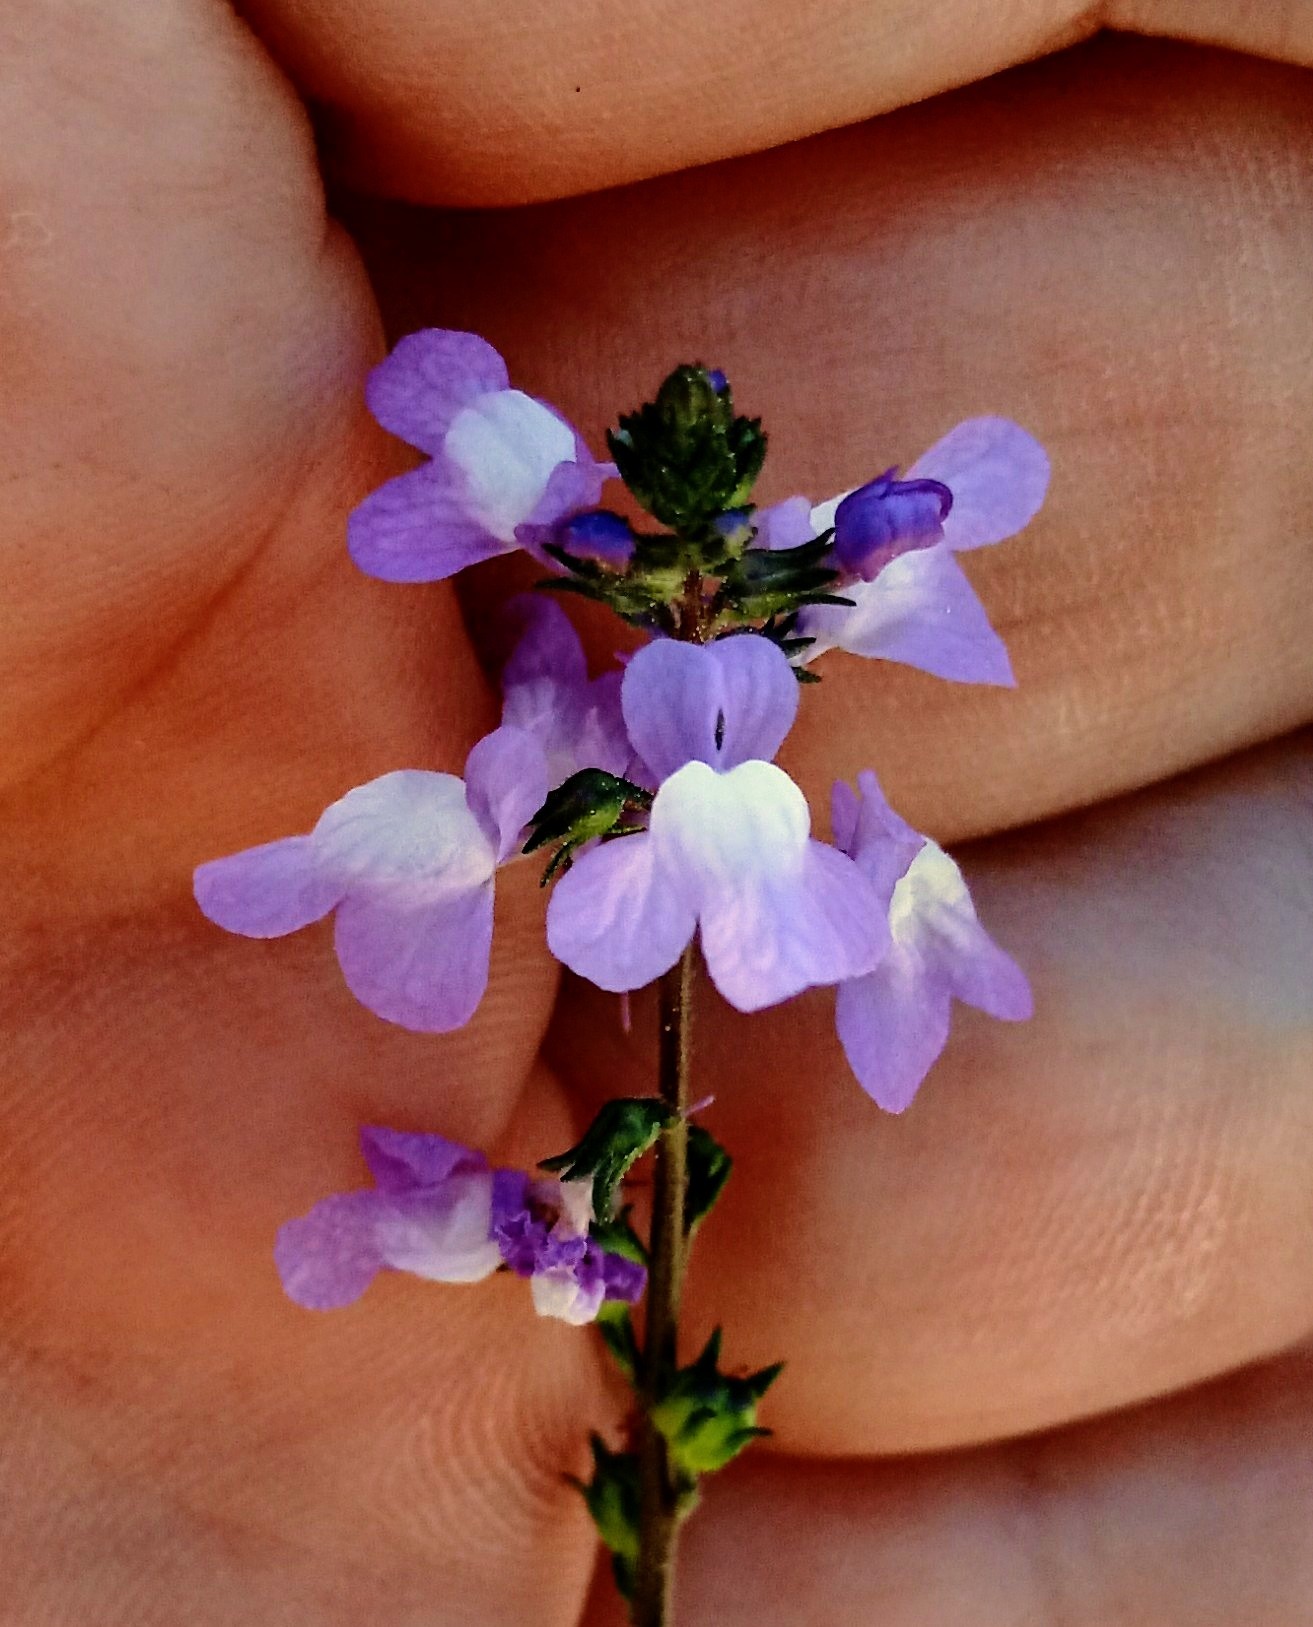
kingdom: Plantae
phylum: Tracheophyta
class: Magnoliopsida
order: Lamiales
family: Plantaginaceae
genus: Nuttallanthus
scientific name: Nuttallanthus canadensis
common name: Blue toadflax
